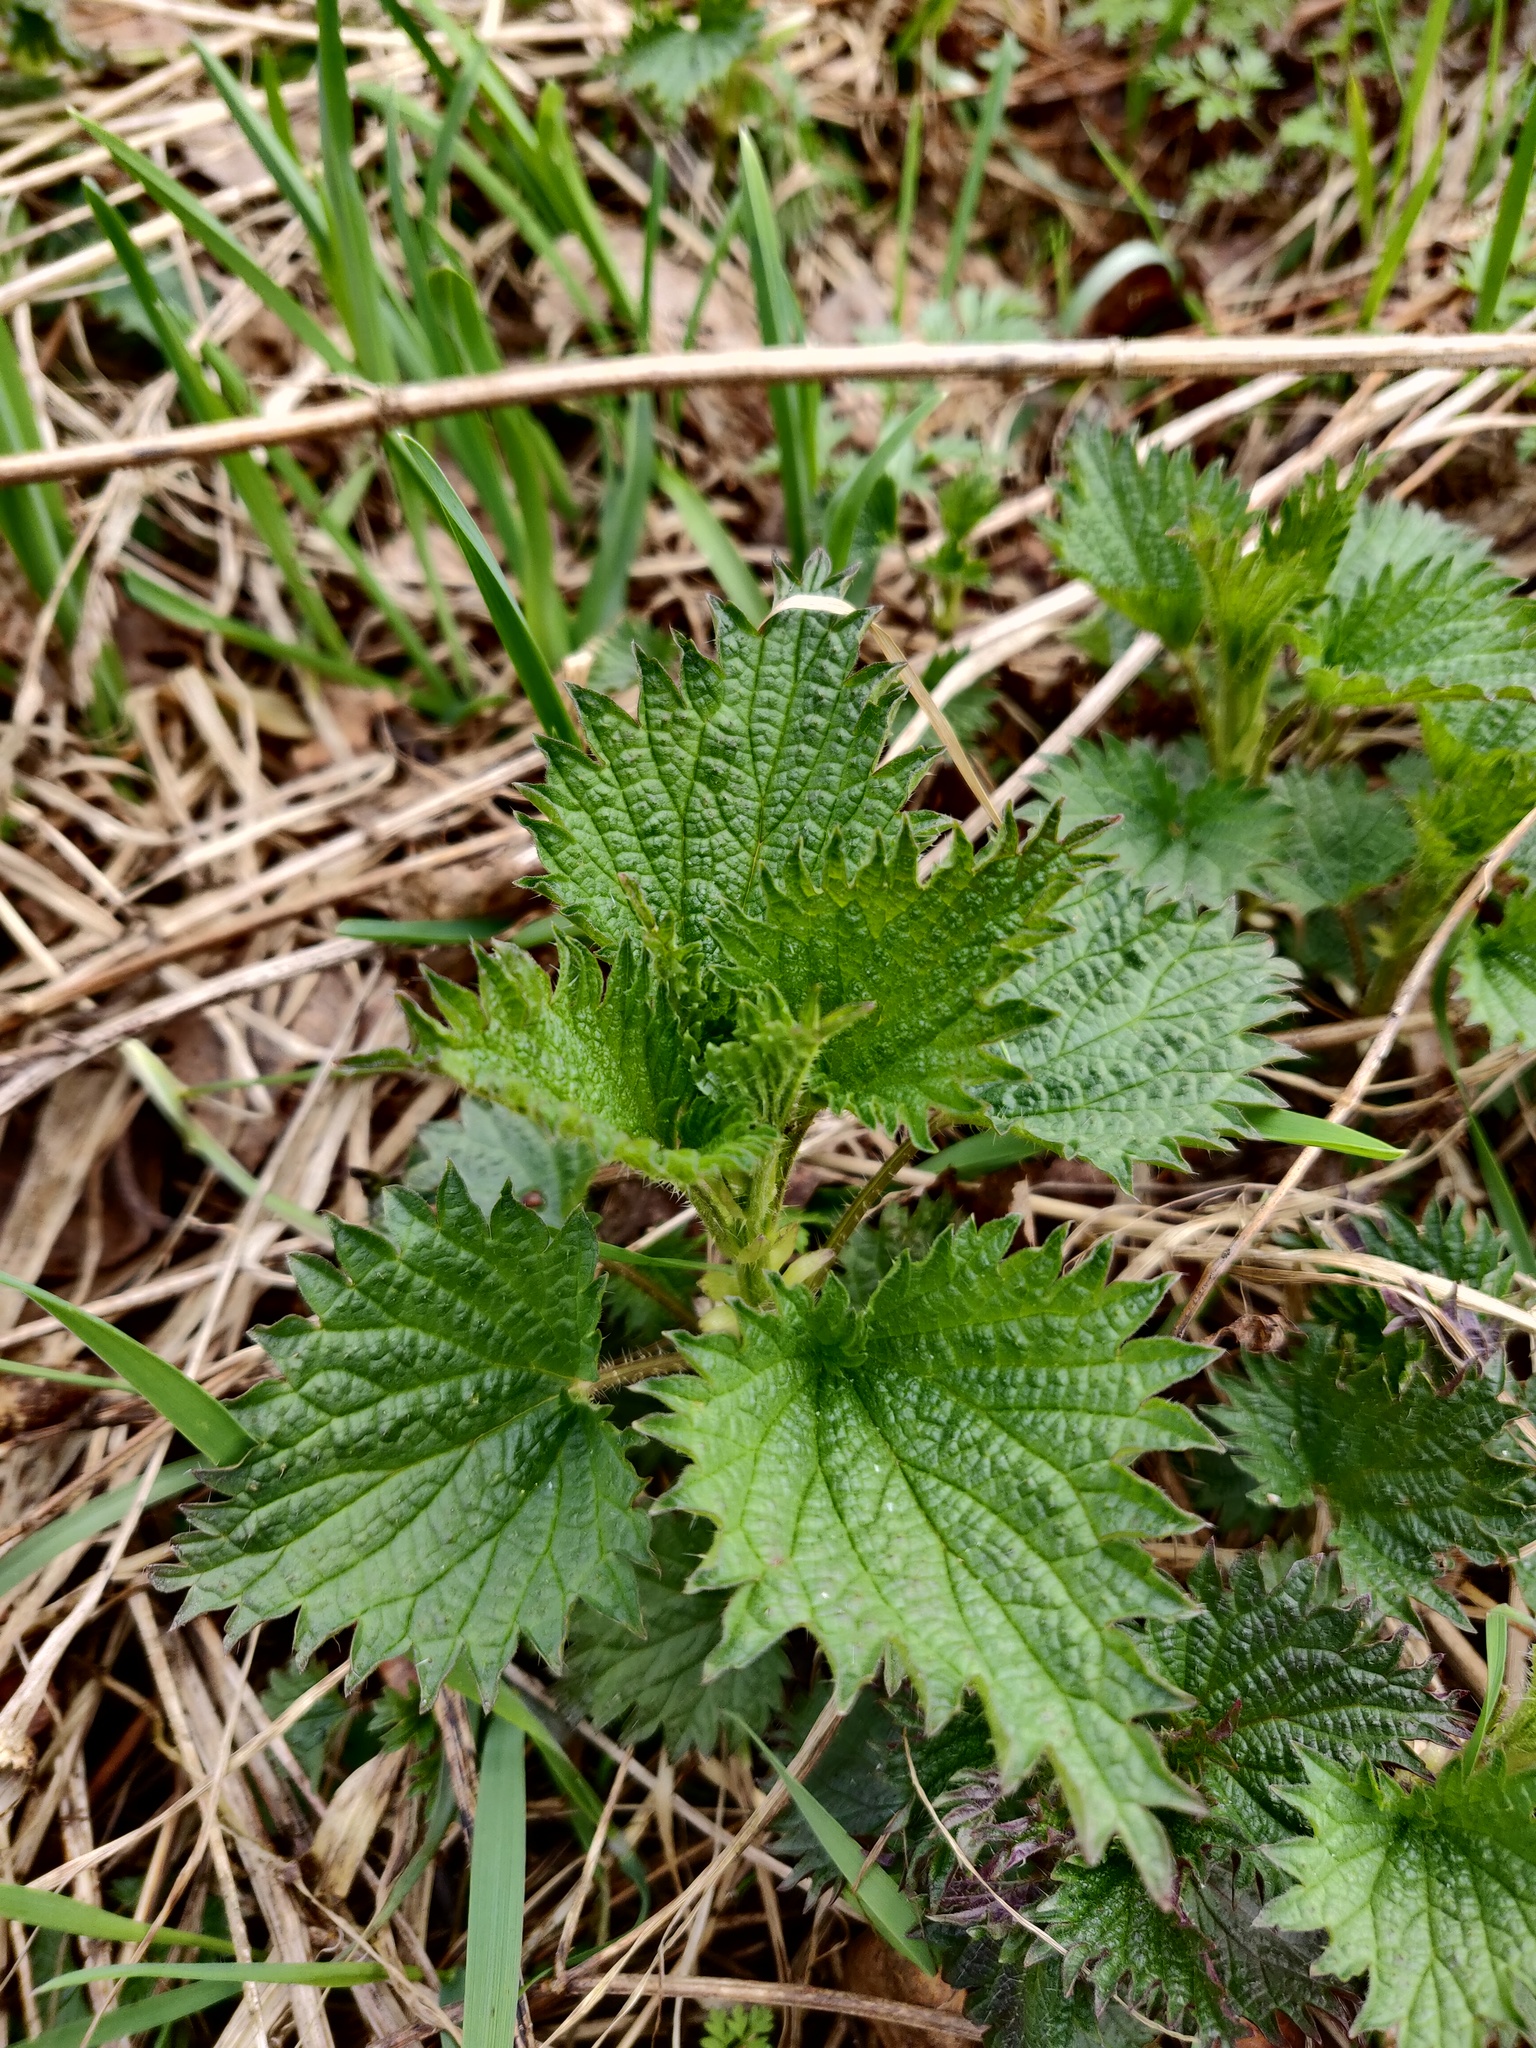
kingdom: Plantae
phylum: Tracheophyta
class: Magnoliopsida
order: Rosales
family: Urticaceae
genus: Urtica
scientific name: Urtica dioica
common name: Common nettle
